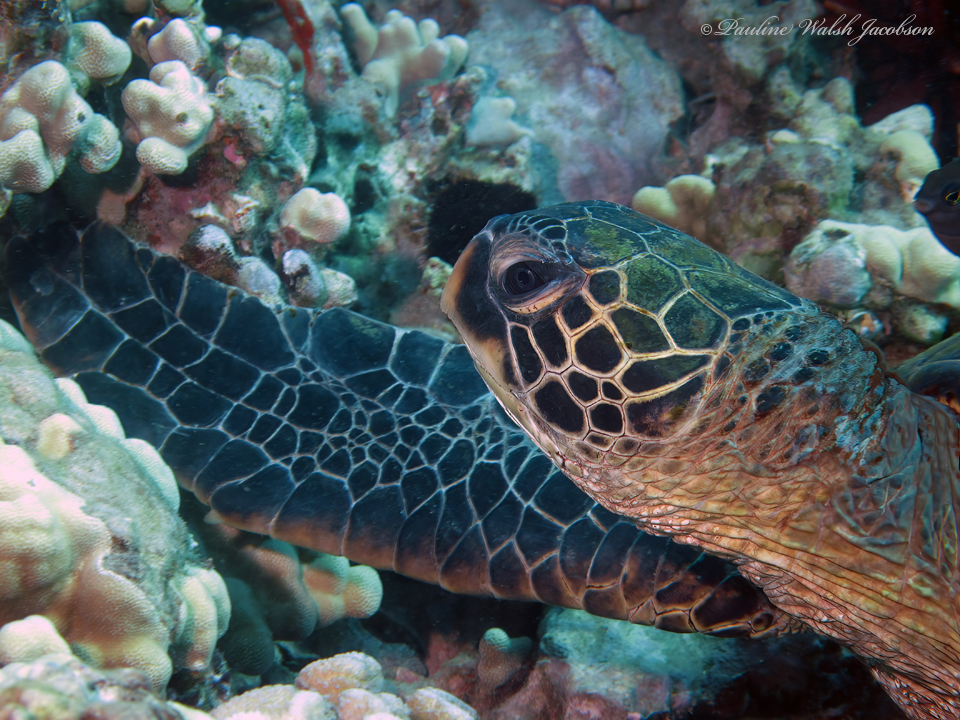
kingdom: Animalia
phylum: Chordata
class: Testudines
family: Cheloniidae
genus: Chelonia
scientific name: Chelonia mydas
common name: Green turtle
